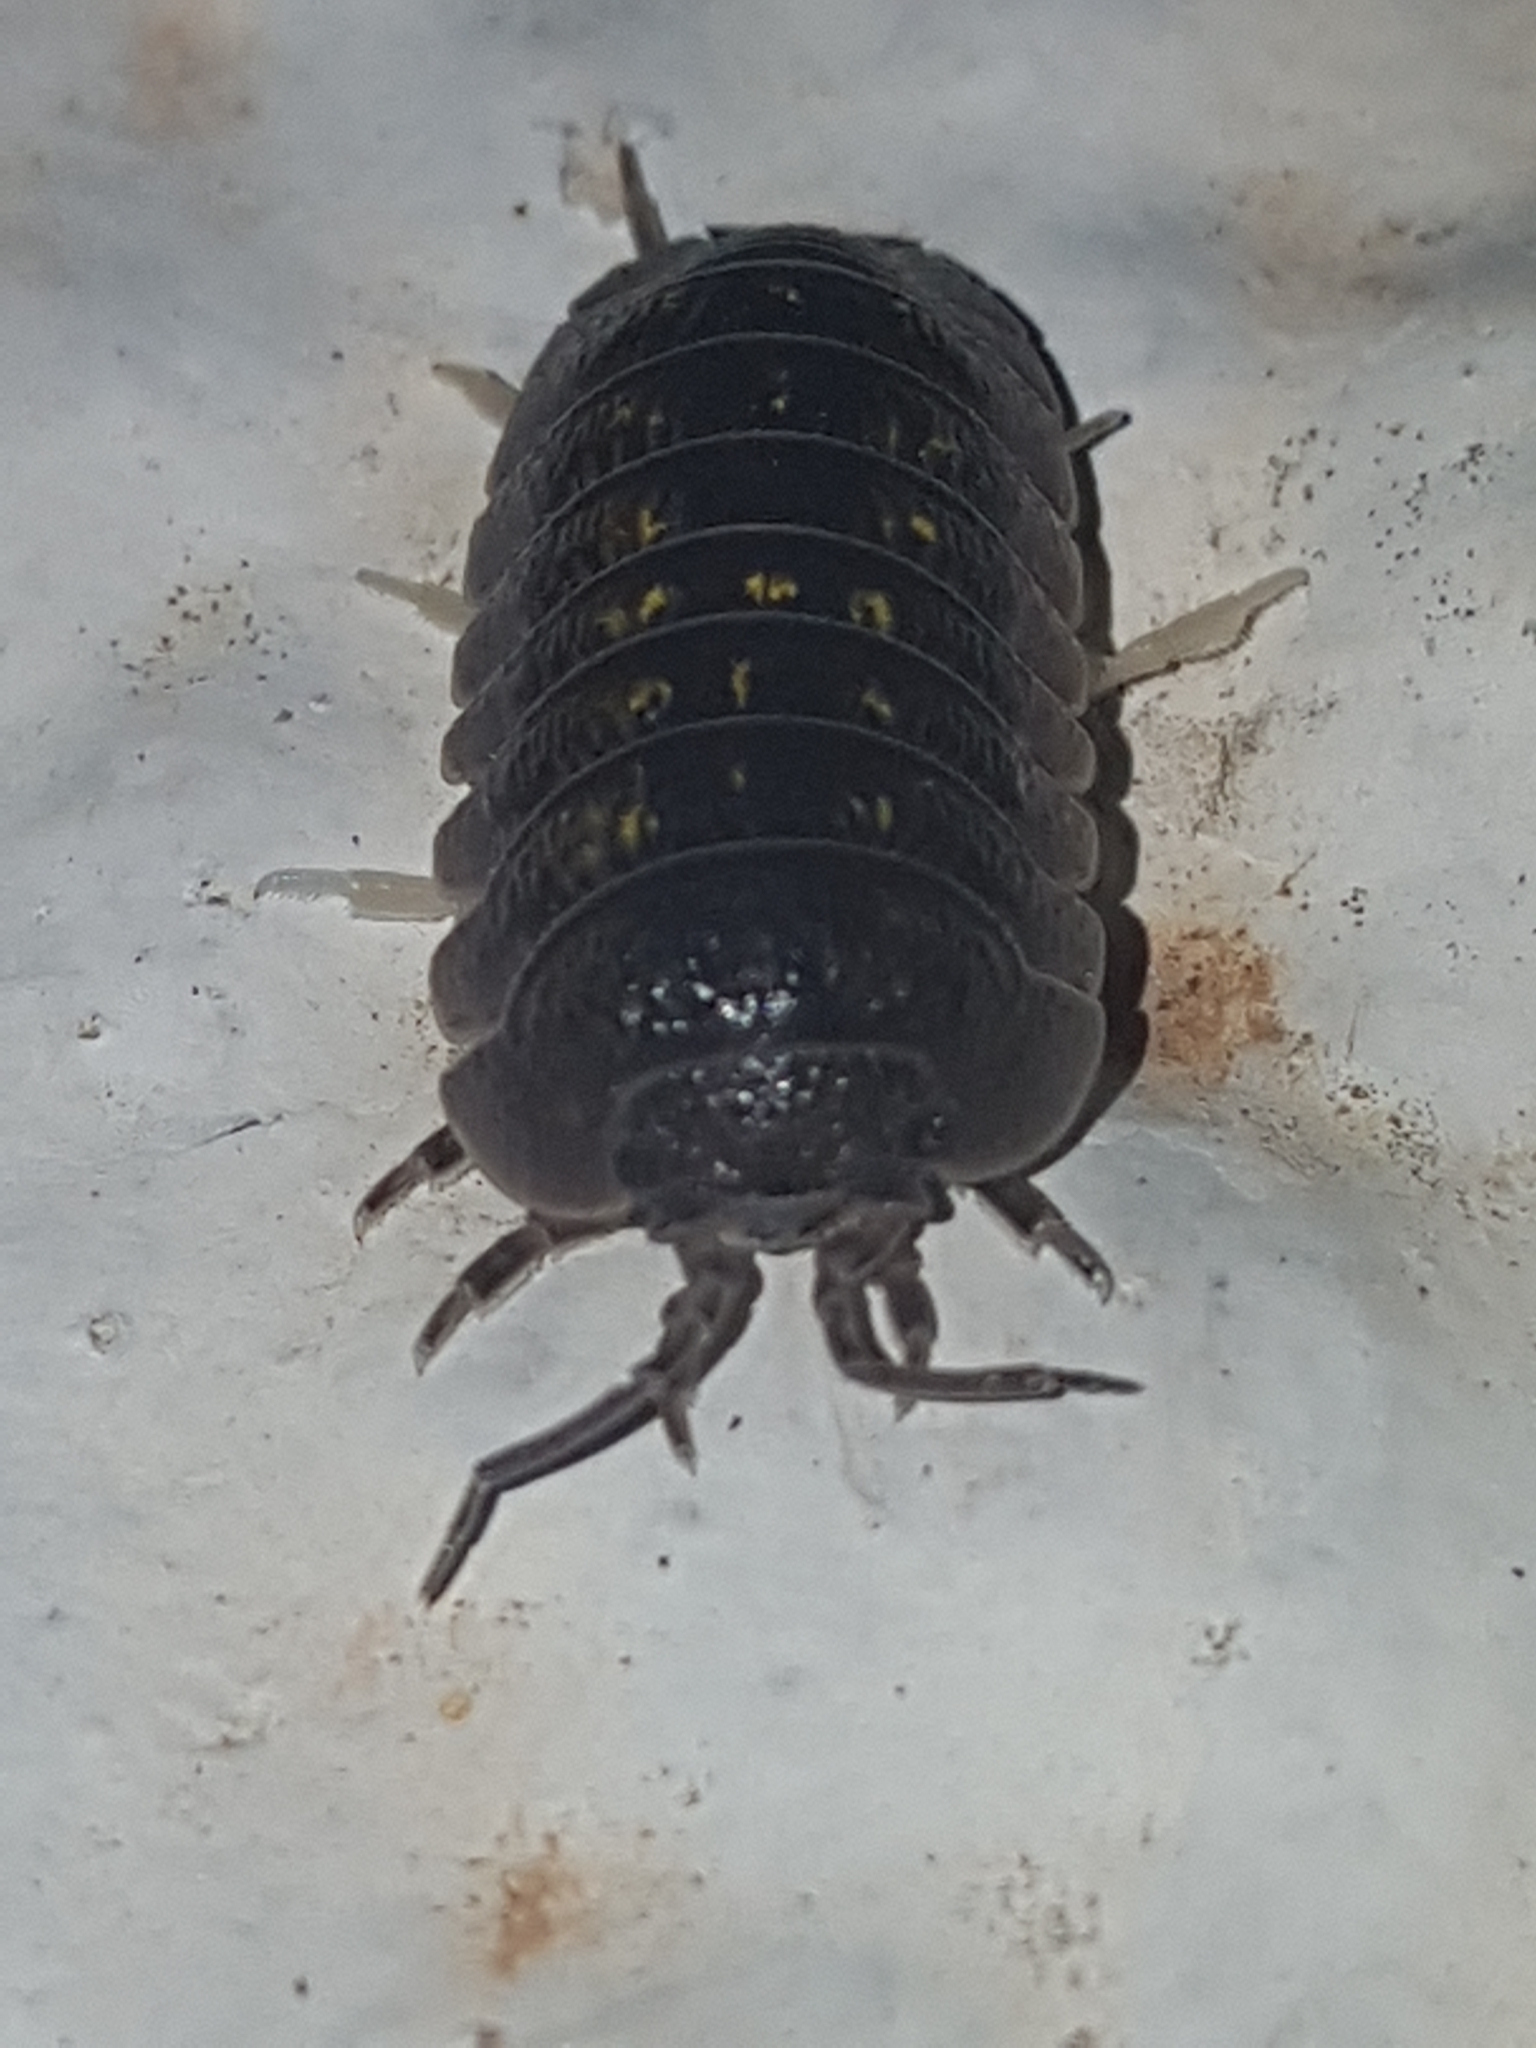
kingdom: Animalia
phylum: Arthropoda
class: Malacostraca
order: Isopoda
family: Armadillidiidae
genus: Armadillidium
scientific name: Armadillidium granulatum
